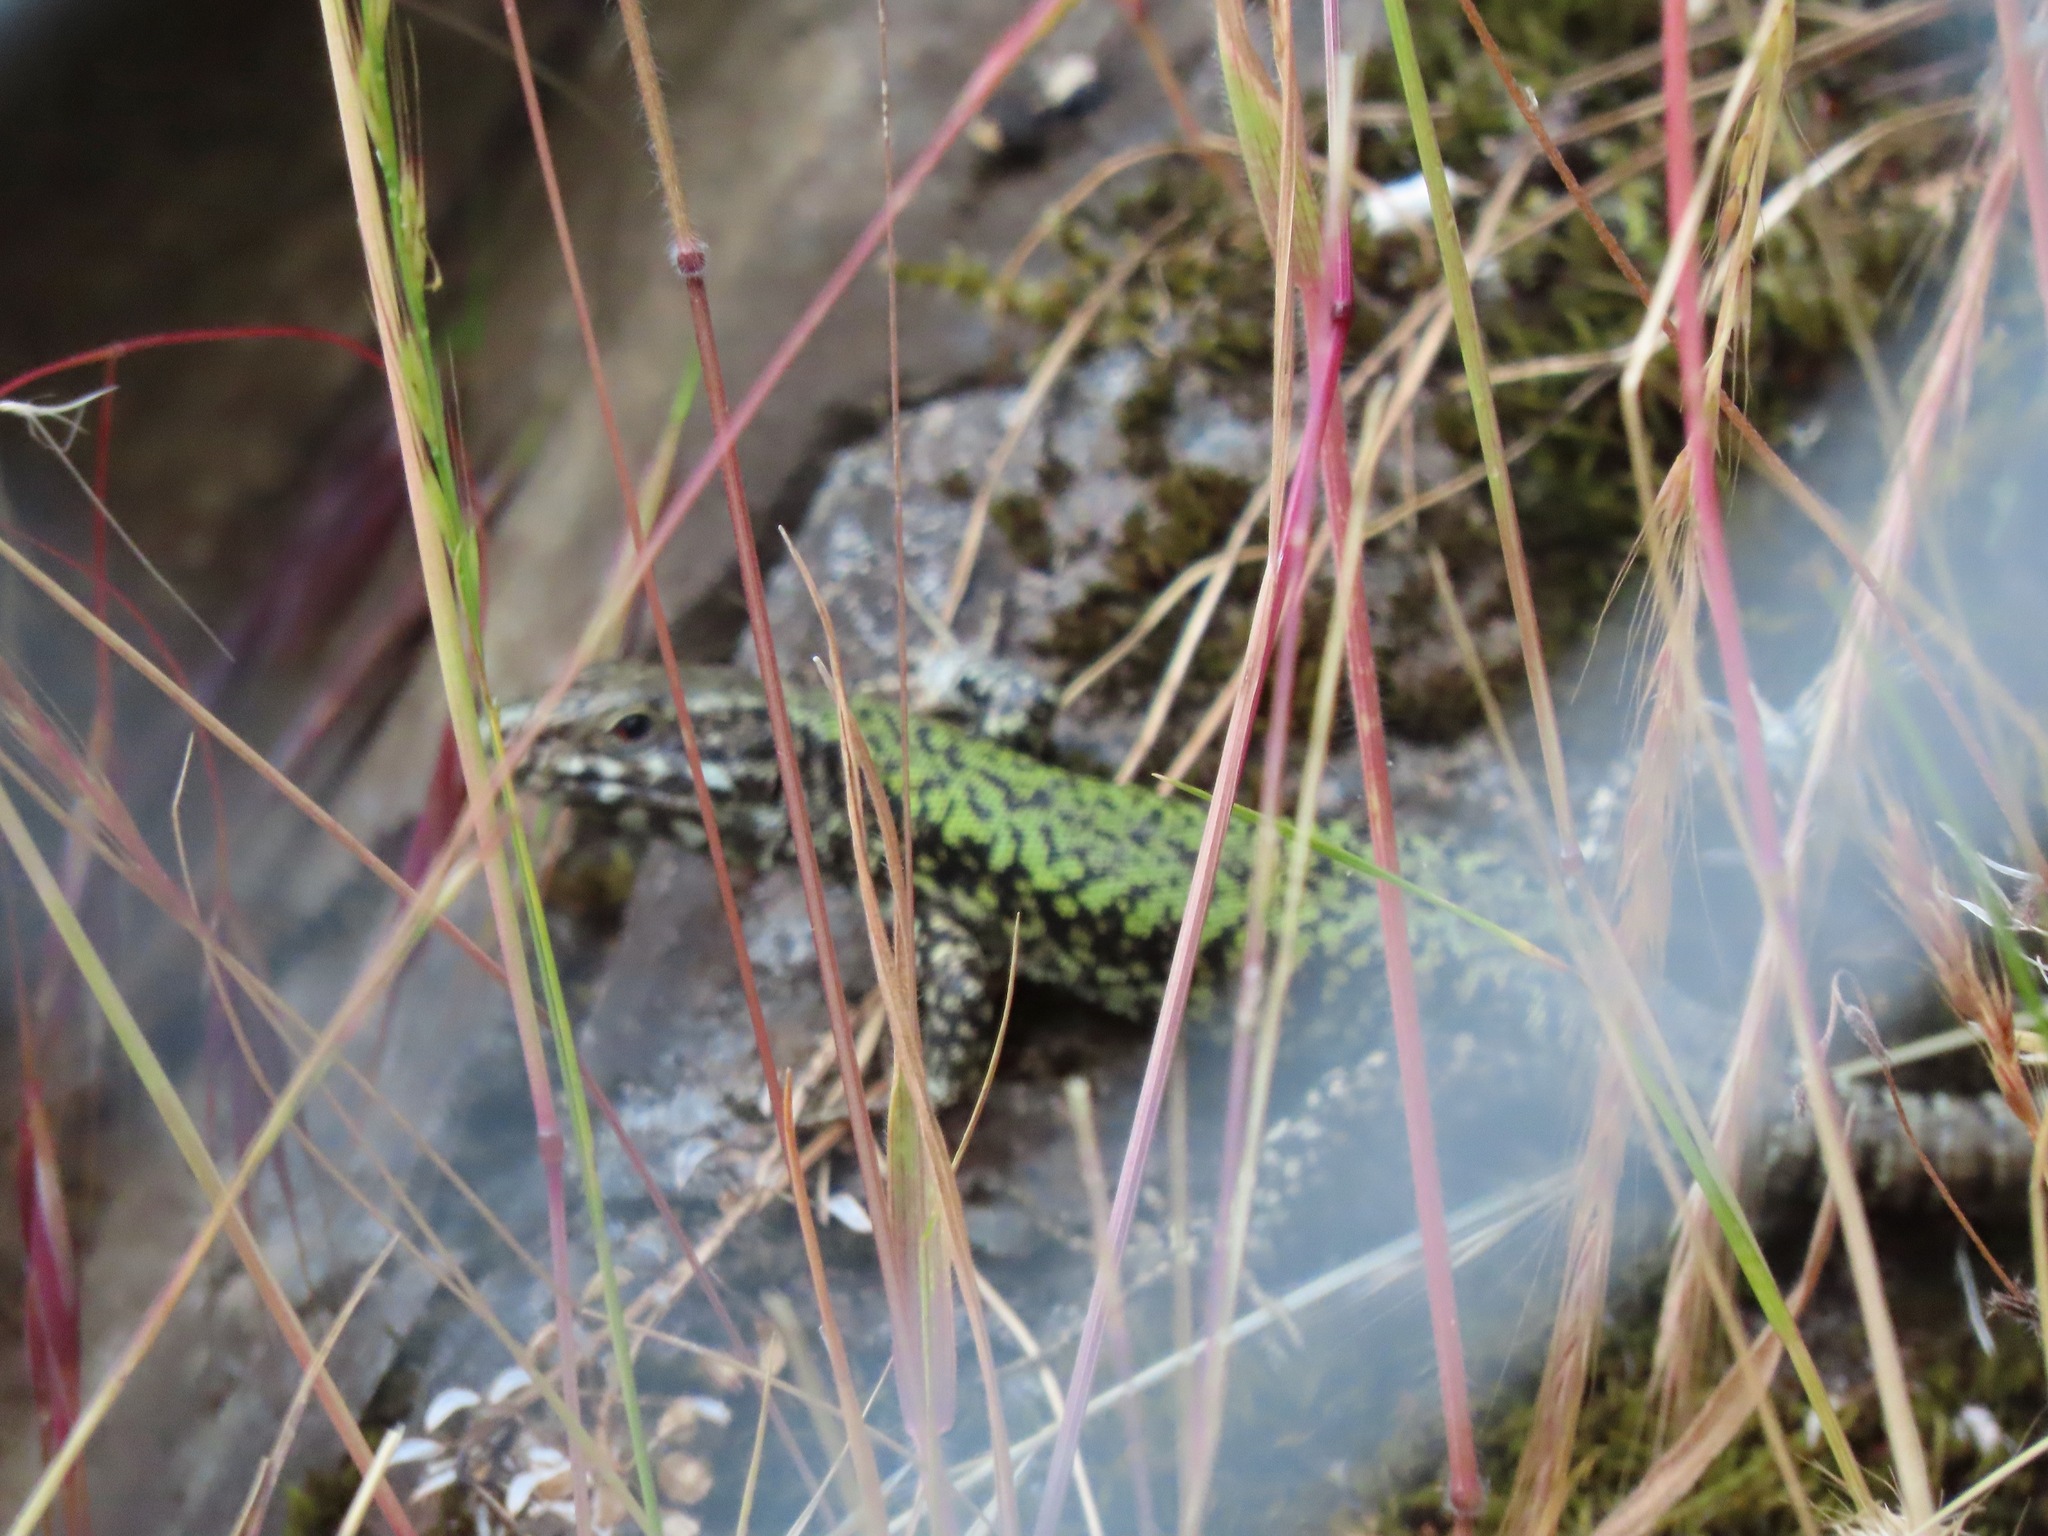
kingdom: Animalia
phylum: Chordata
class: Squamata
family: Lacertidae
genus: Podarcis
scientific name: Podarcis muralis
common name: Common wall lizard
